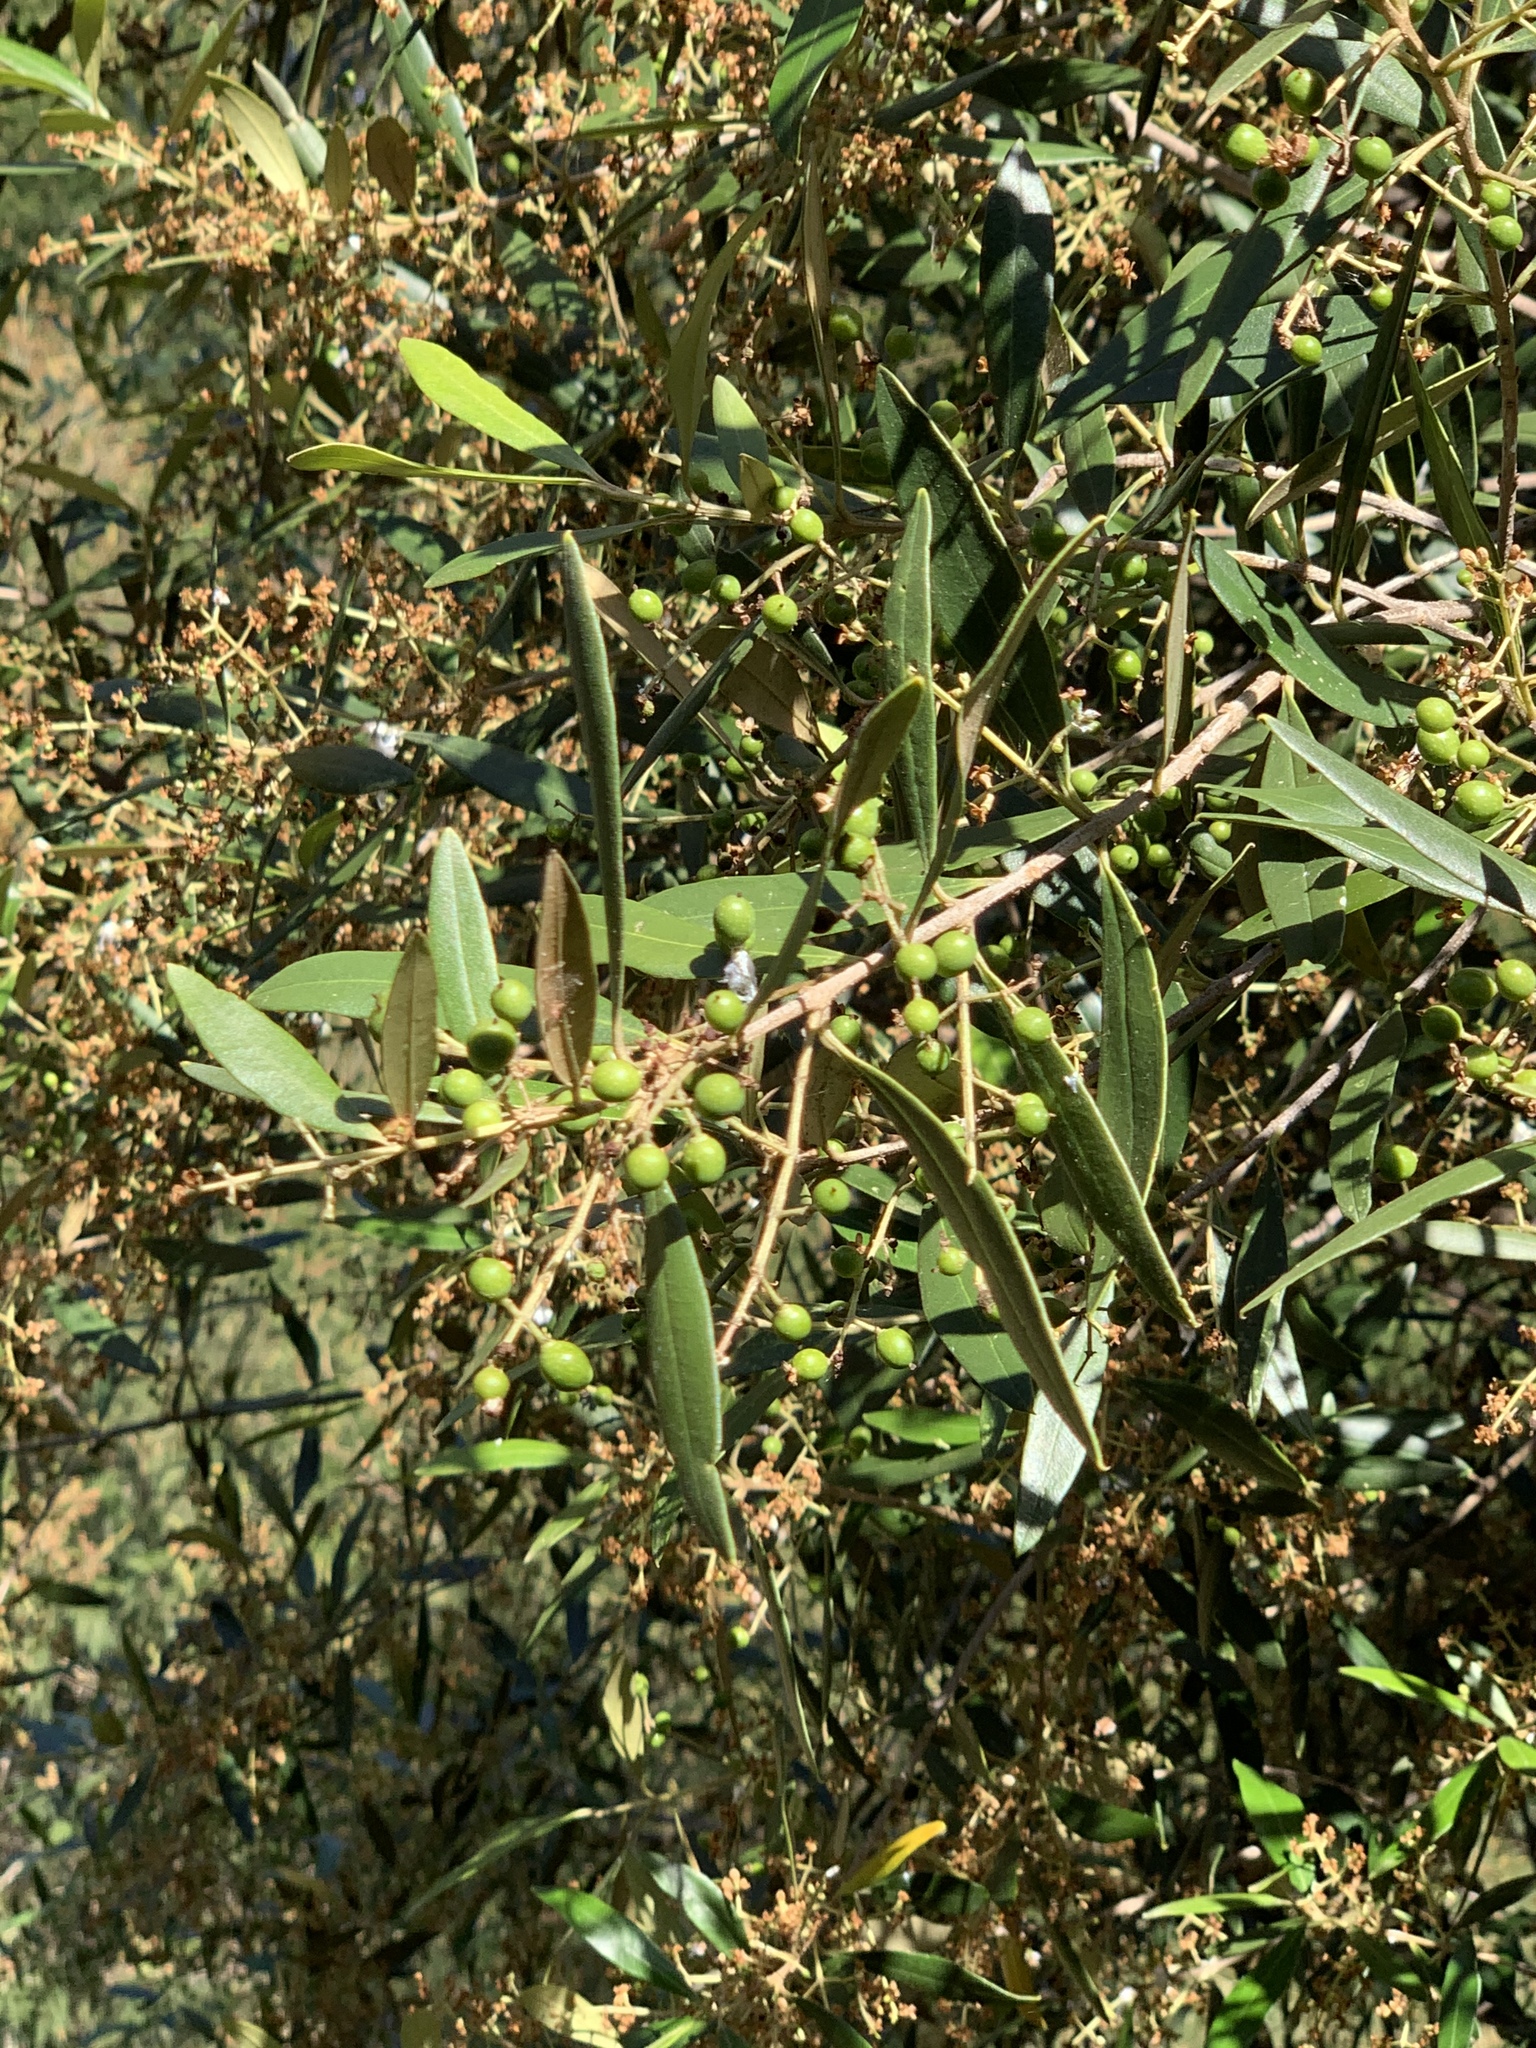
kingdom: Plantae
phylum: Tracheophyta
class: Magnoliopsida
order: Lamiales
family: Oleaceae
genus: Olea
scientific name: Olea europaea
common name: Olive
